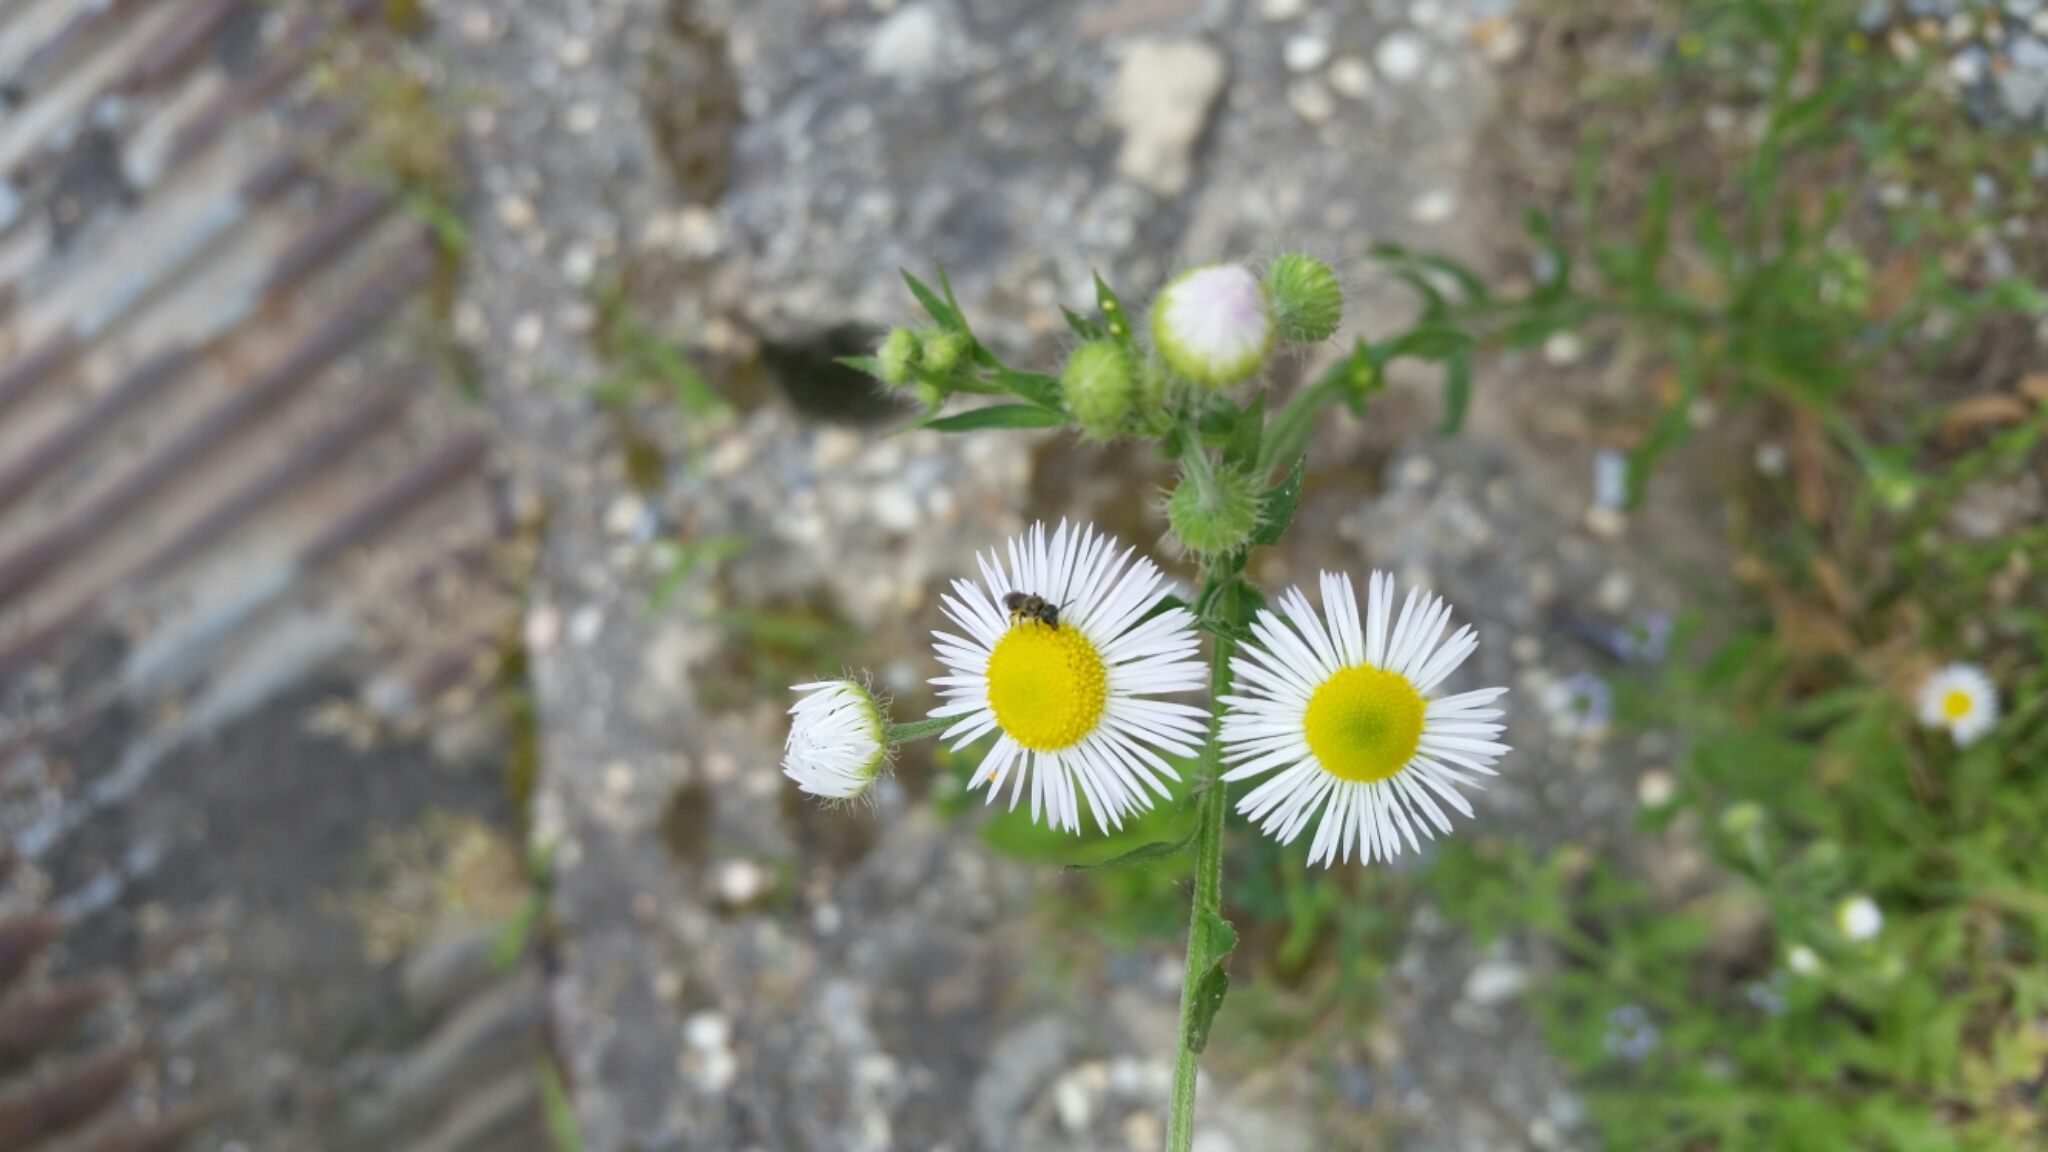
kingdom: Plantae
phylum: Tracheophyta
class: Magnoliopsida
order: Asterales
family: Asteraceae
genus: Erigeron
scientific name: Erigeron annuus
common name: Tall fleabane
